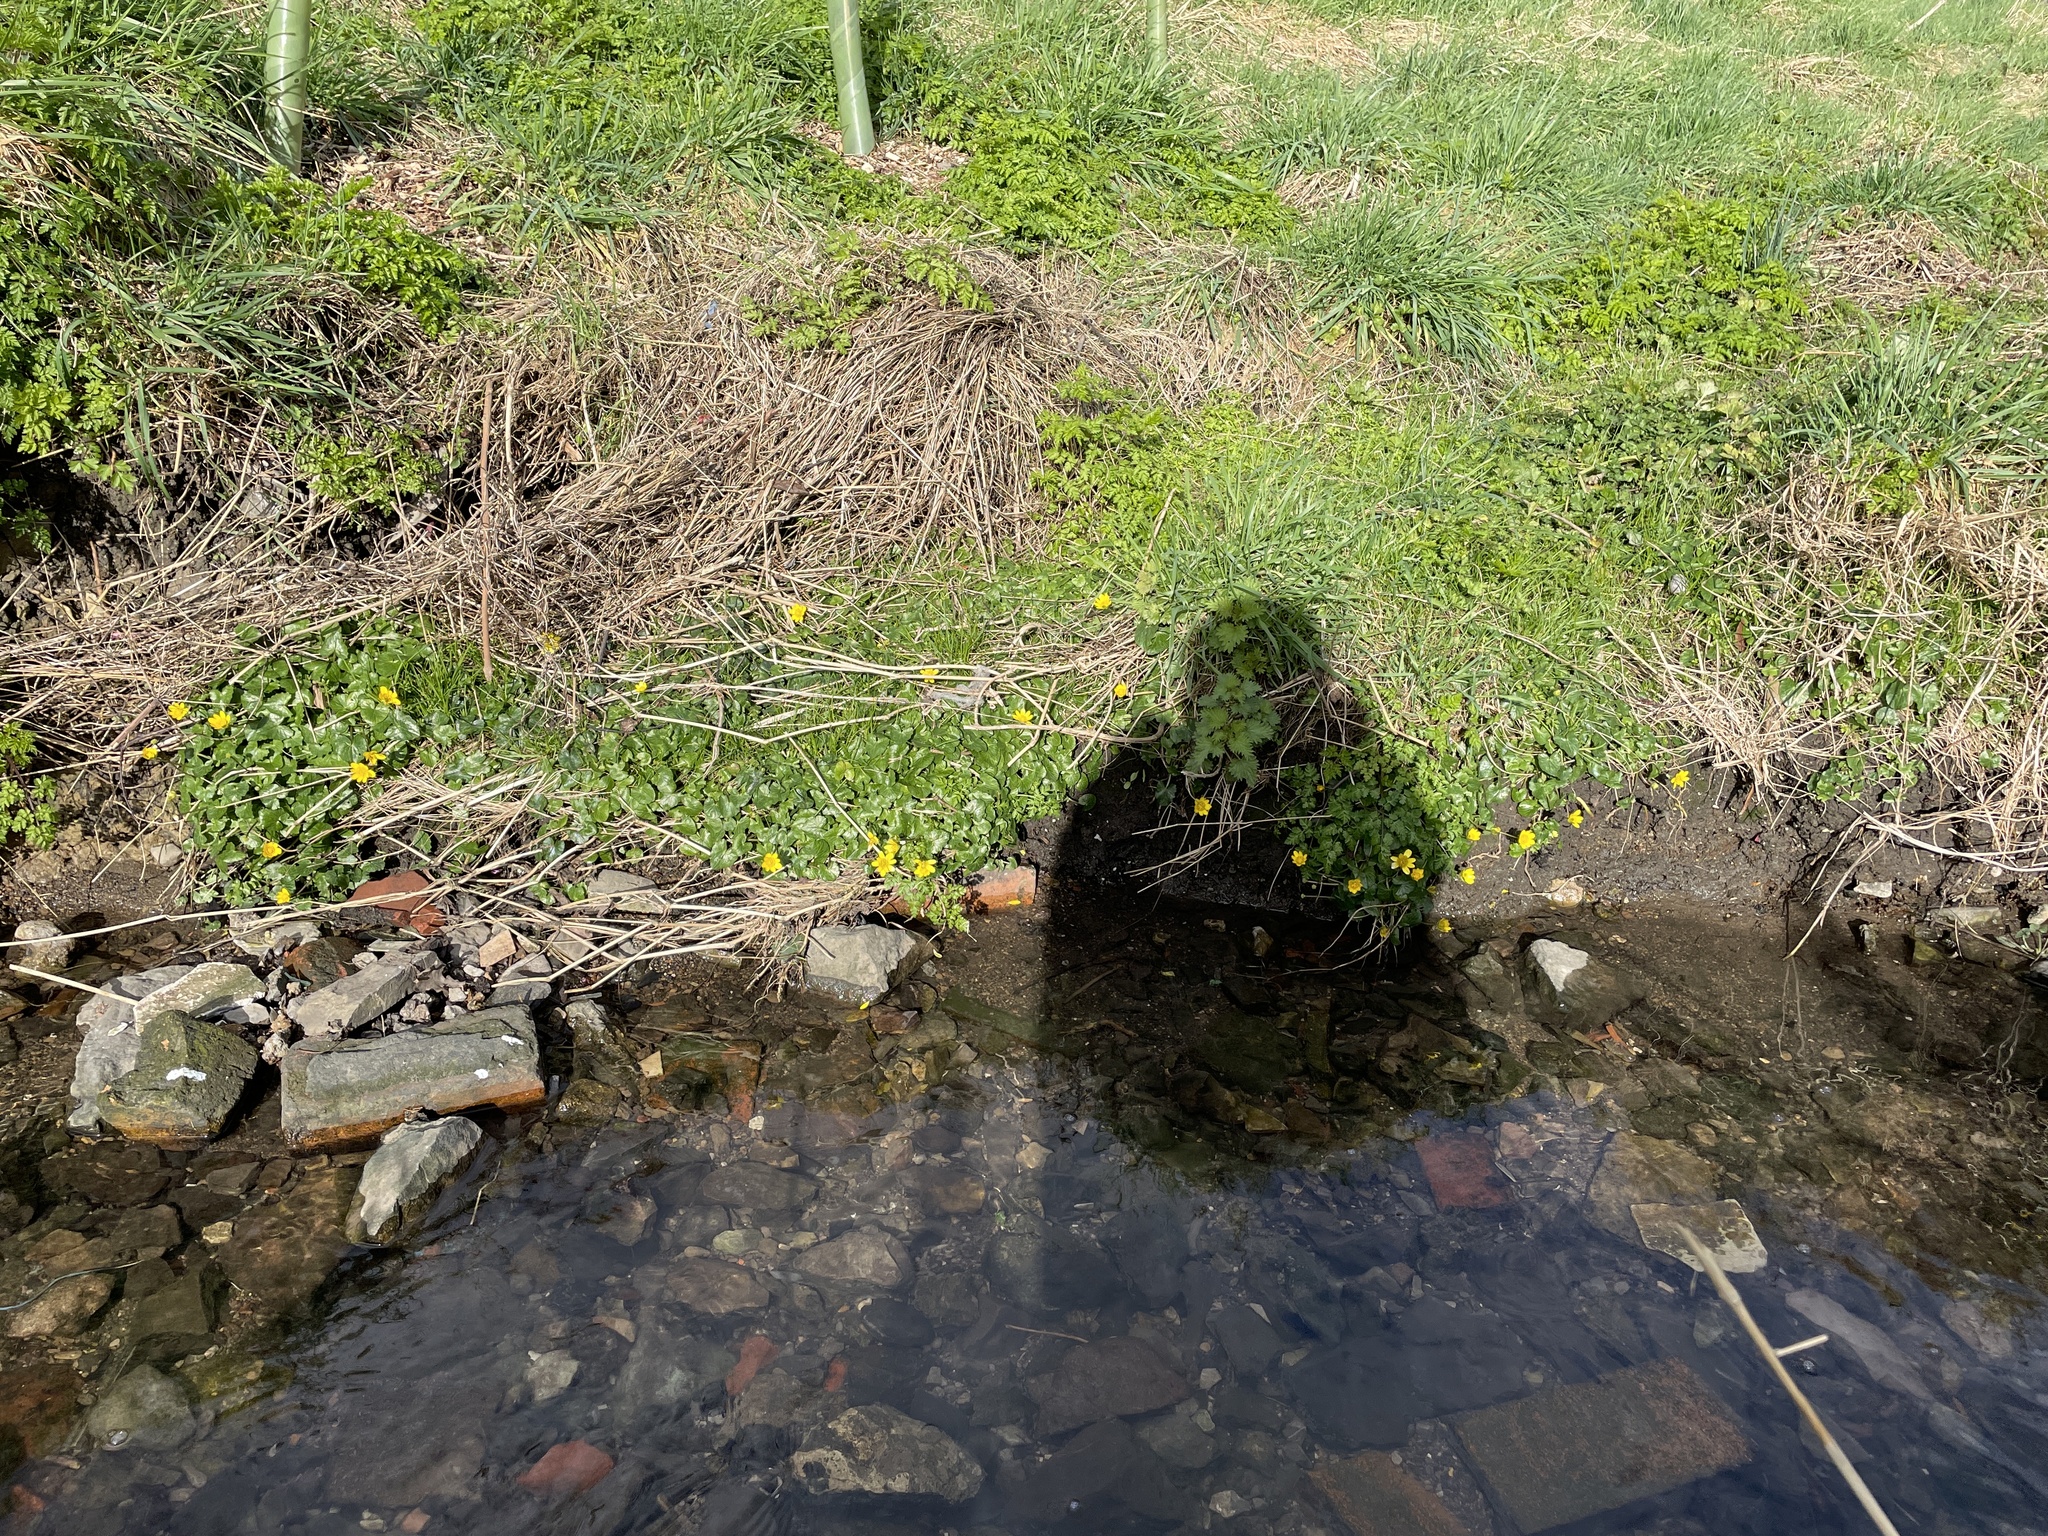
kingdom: Plantae
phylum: Tracheophyta
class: Magnoliopsida
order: Ranunculales
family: Ranunculaceae
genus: Ficaria
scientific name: Ficaria verna
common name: Lesser celandine
